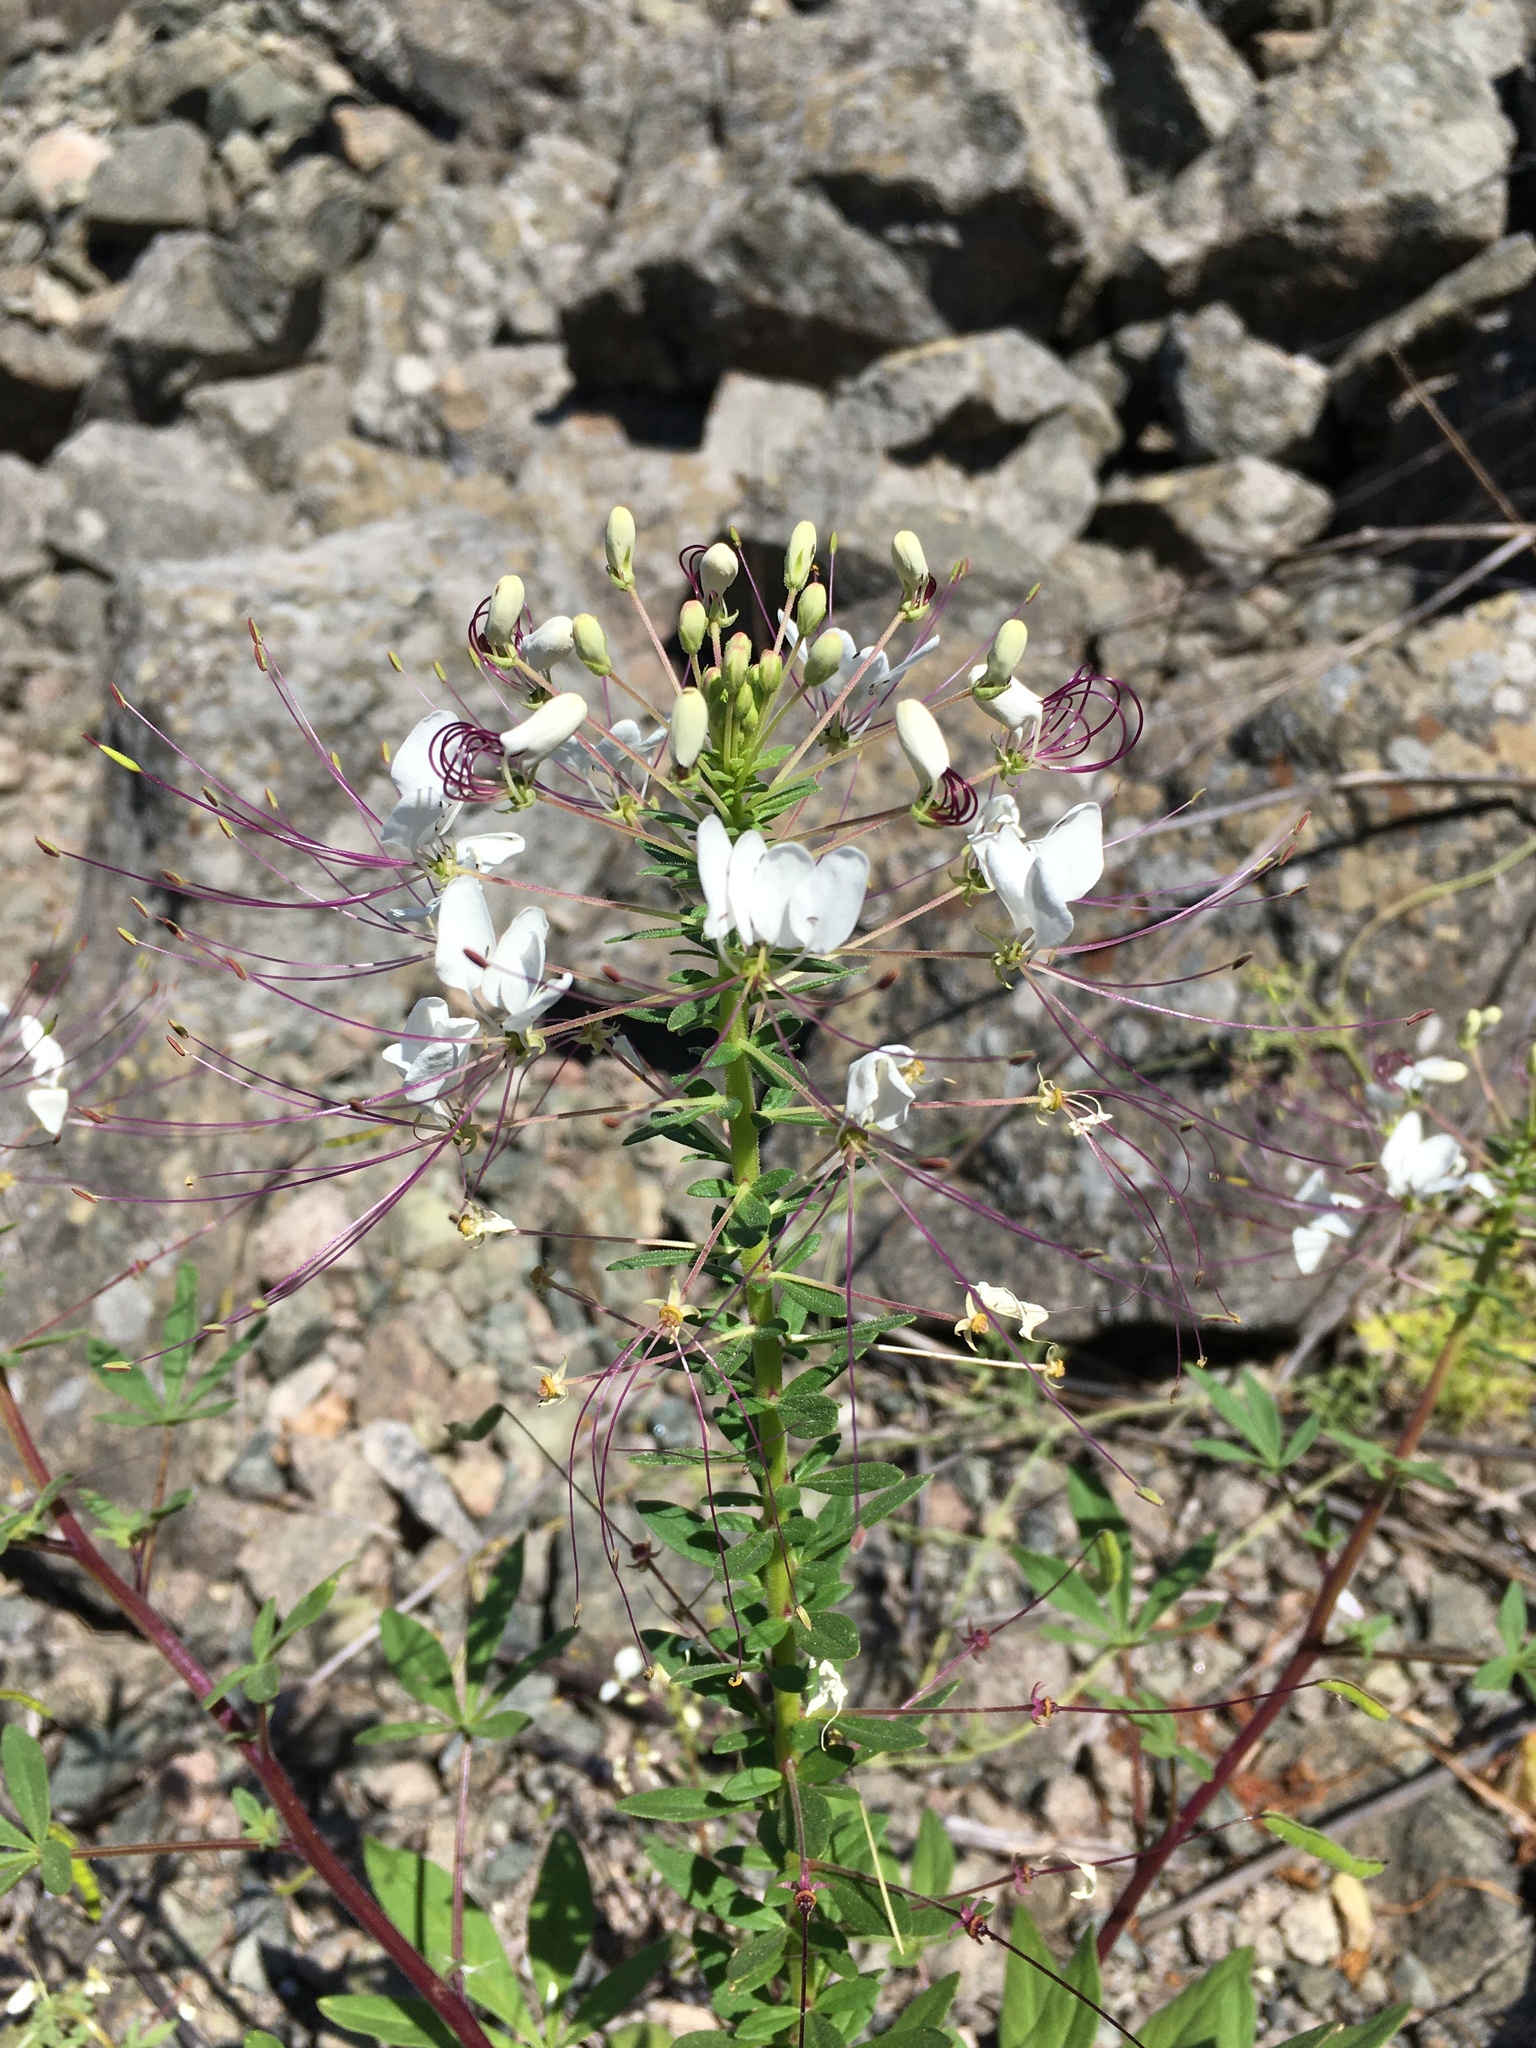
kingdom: Plantae
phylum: Tracheophyta
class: Magnoliopsida
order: Brassicales
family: Cleomaceae
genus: Andinocleome
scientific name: Andinocleome chilensis
